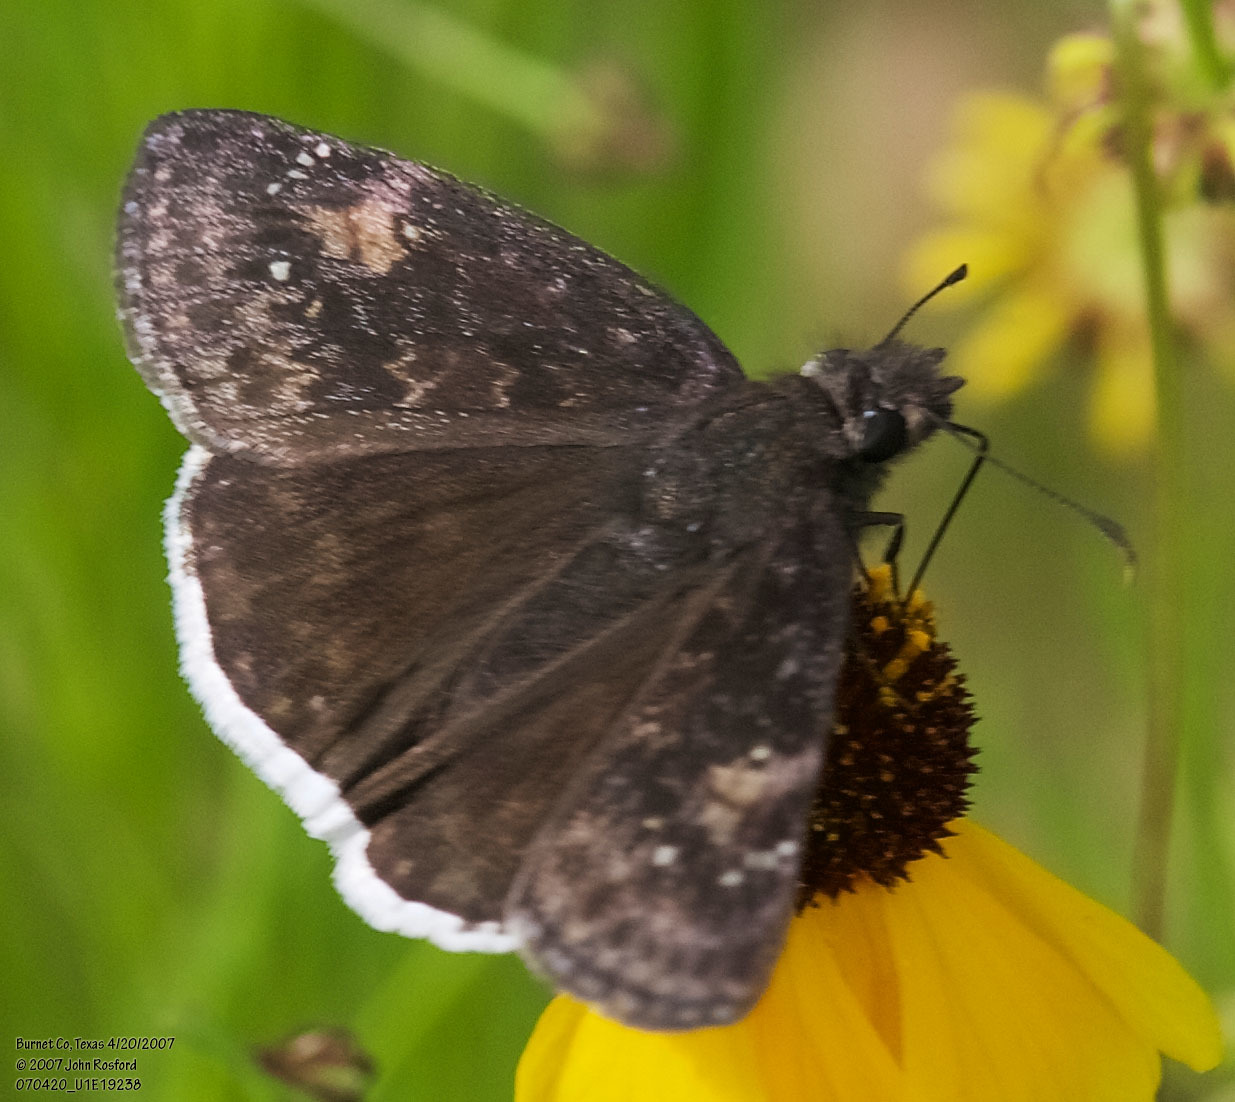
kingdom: Animalia
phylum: Arthropoda
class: Insecta
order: Lepidoptera
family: Hesperiidae
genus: Erynnis
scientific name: Erynnis funeralis
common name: Funereal duskywing
